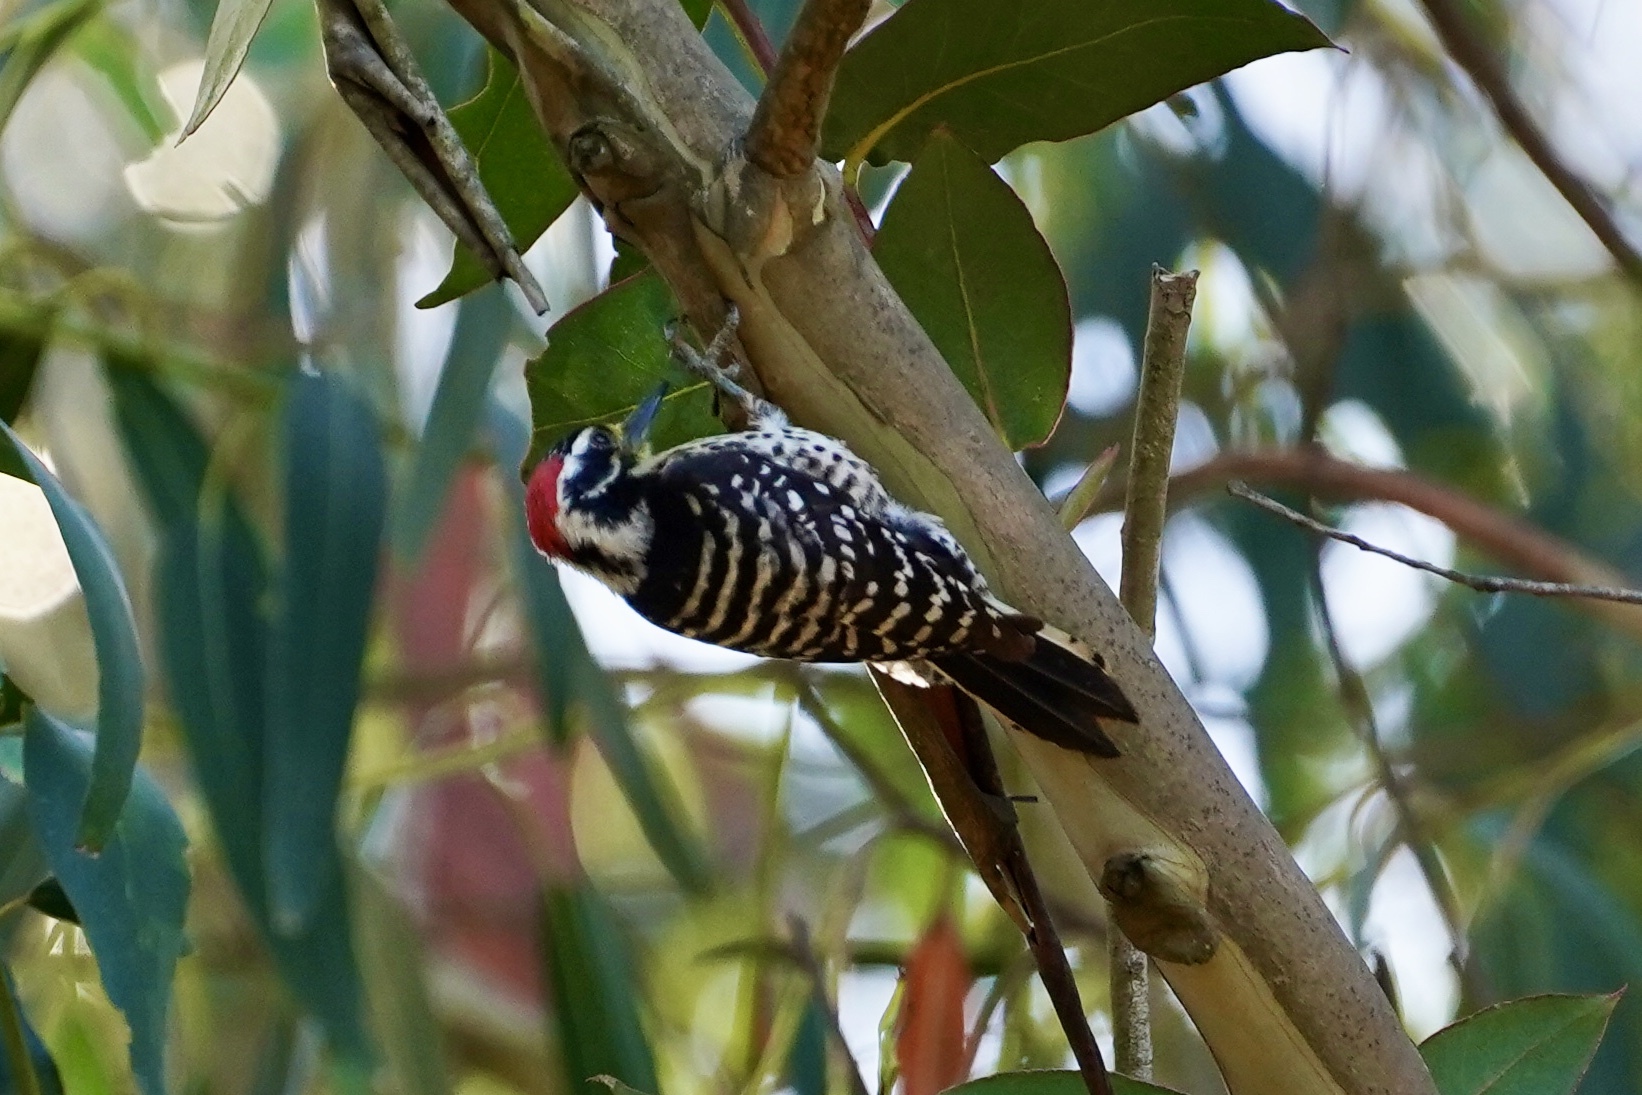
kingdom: Animalia
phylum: Chordata
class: Aves
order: Piciformes
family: Picidae
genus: Dryobates
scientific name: Dryobates nuttallii
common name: Nuttall's woodpecker
